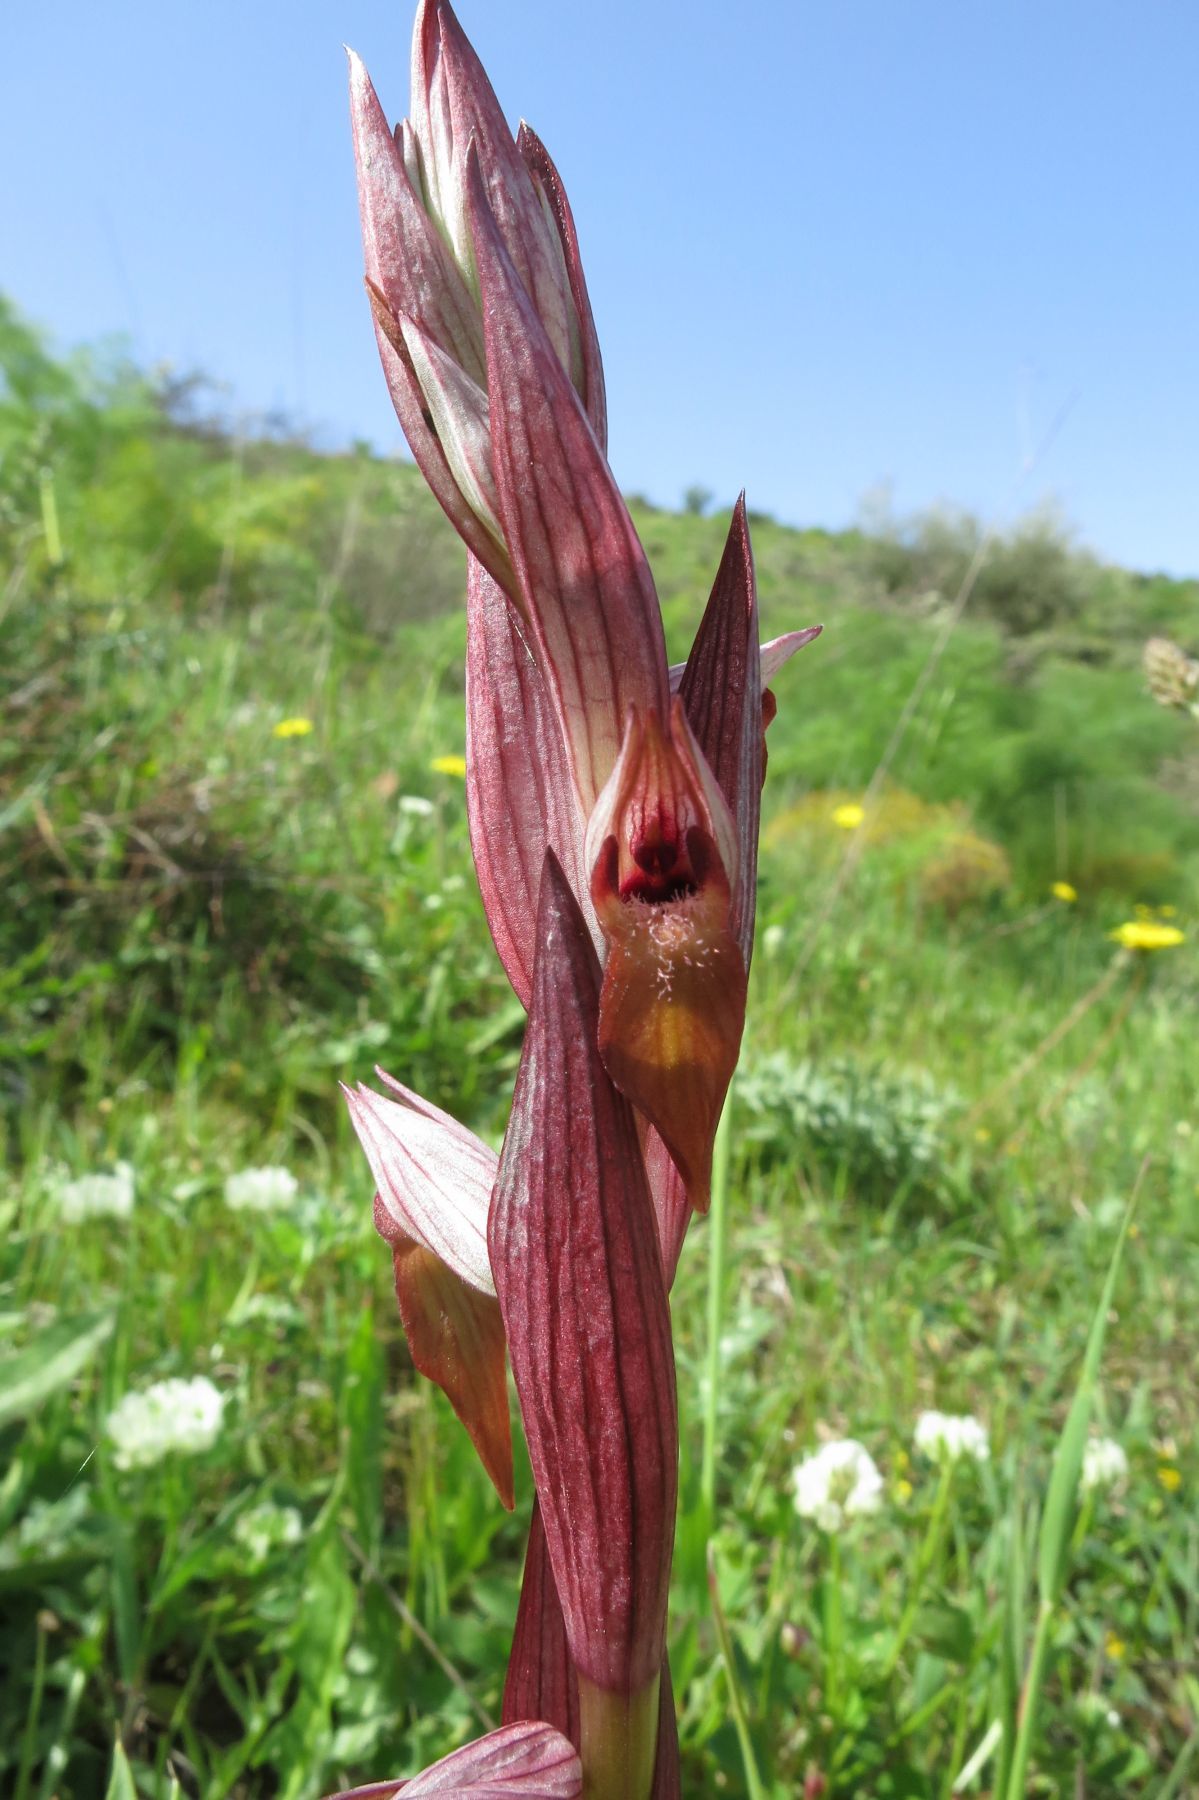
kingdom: Plantae
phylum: Tracheophyta
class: Liliopsida
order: Asparagales
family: Orchidaceae
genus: Serapias
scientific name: Serapias bergonii
